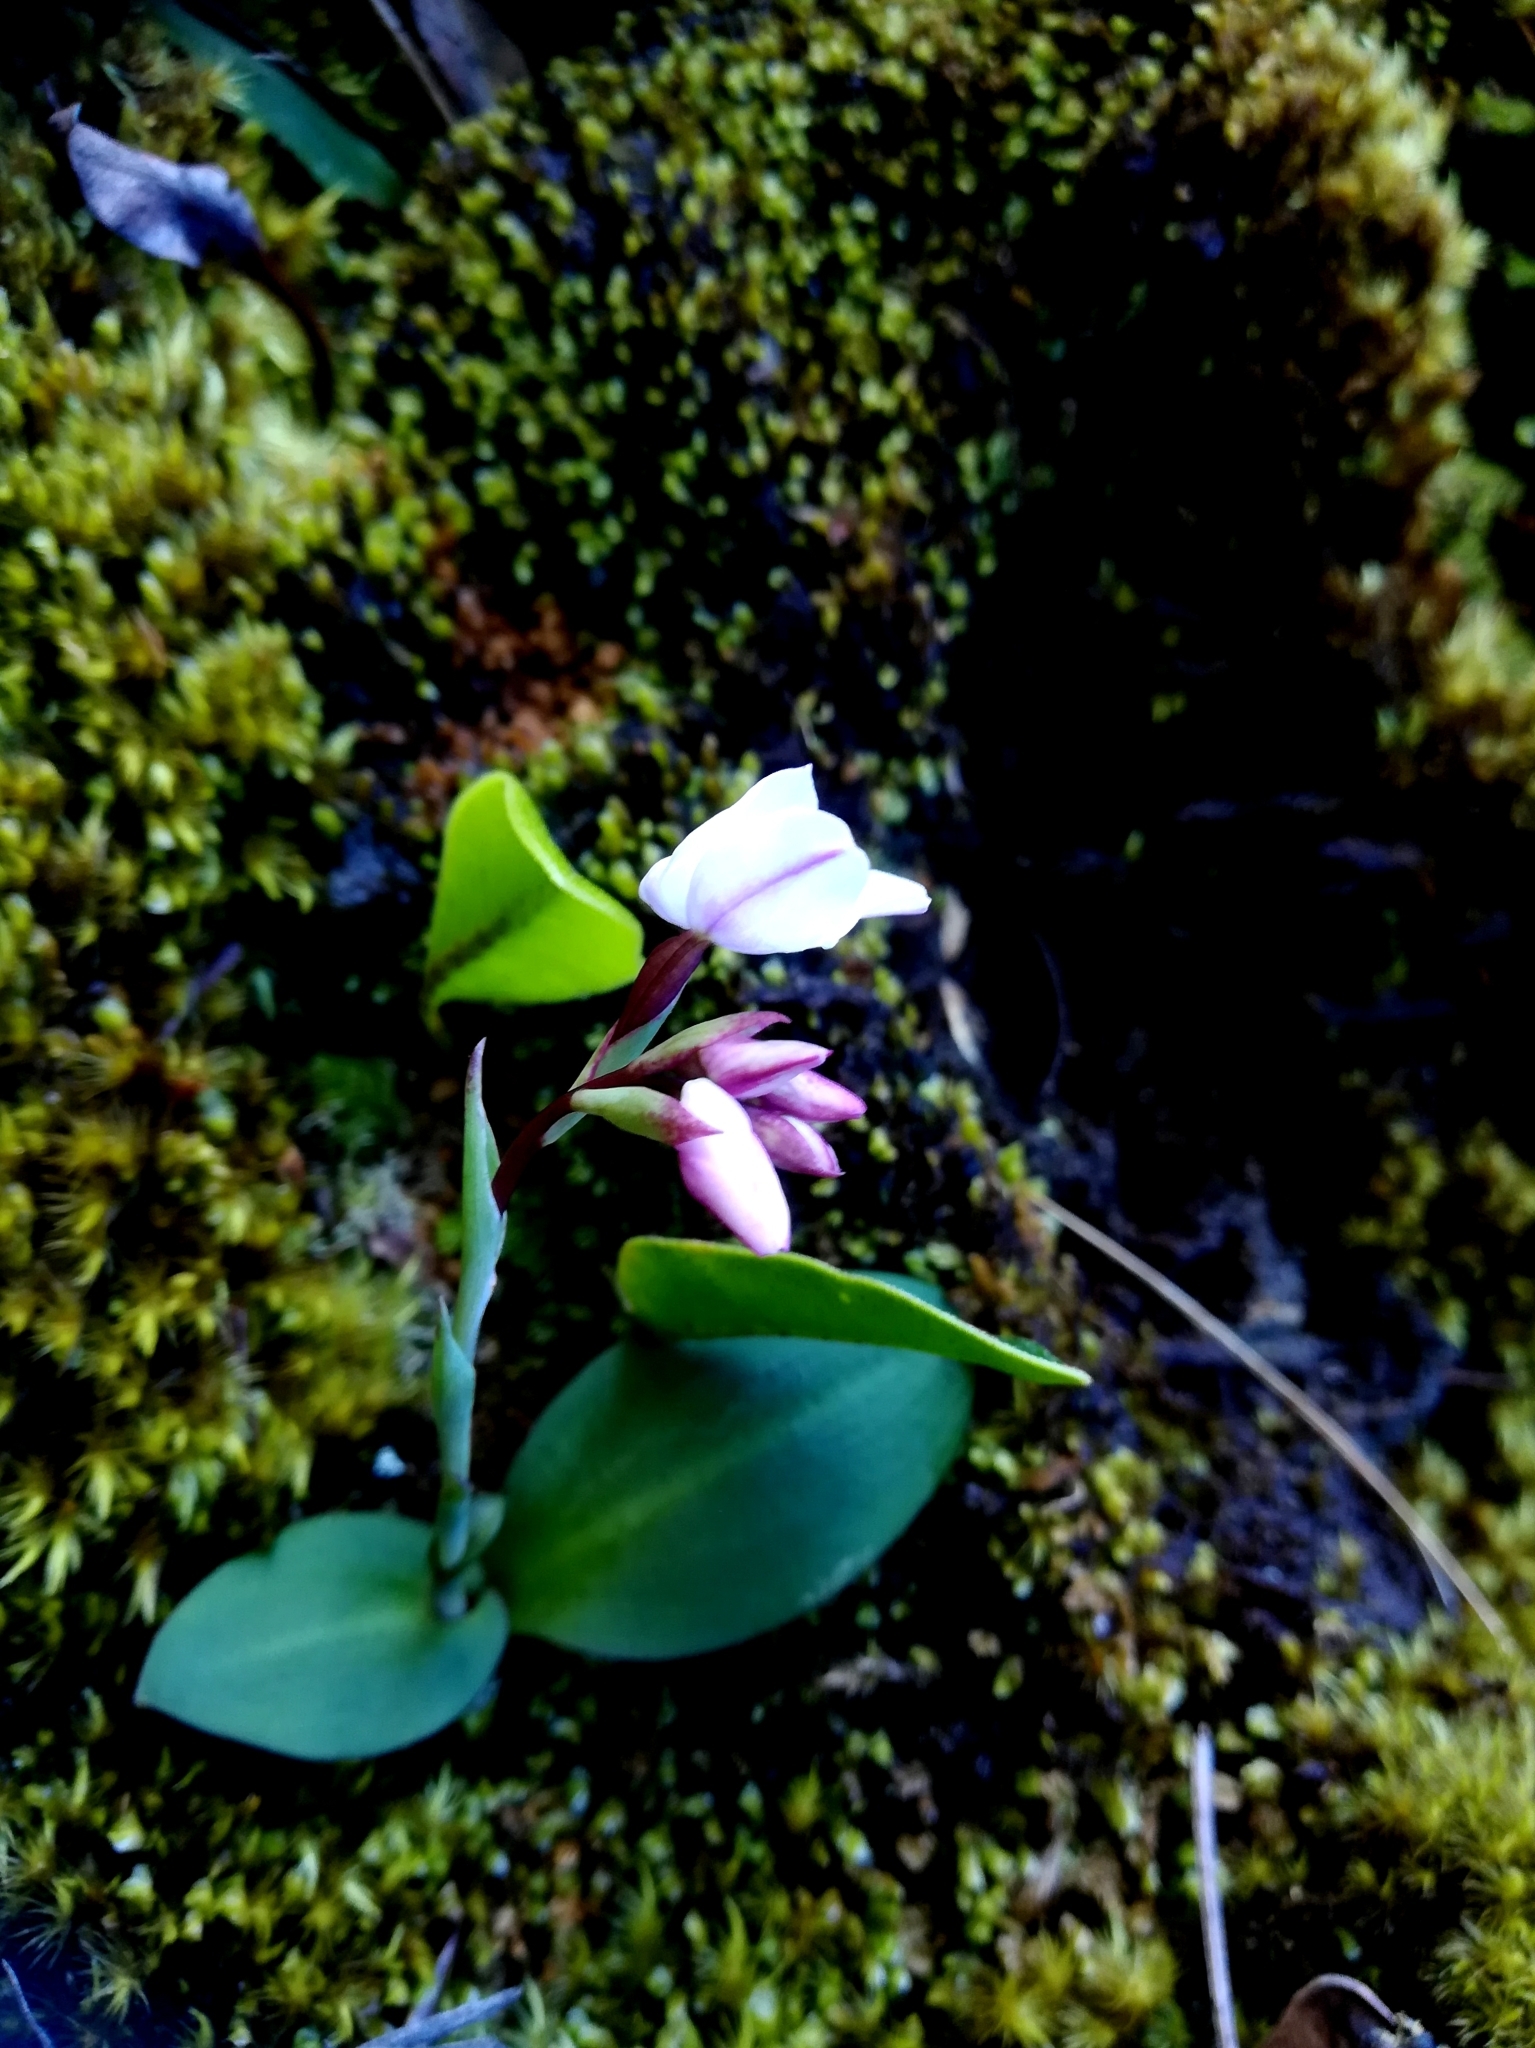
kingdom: Plantae
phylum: Tracheophyta
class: Liliopsida
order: Asparagales
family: Orchidaceae
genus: Disa
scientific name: Disa rosea
